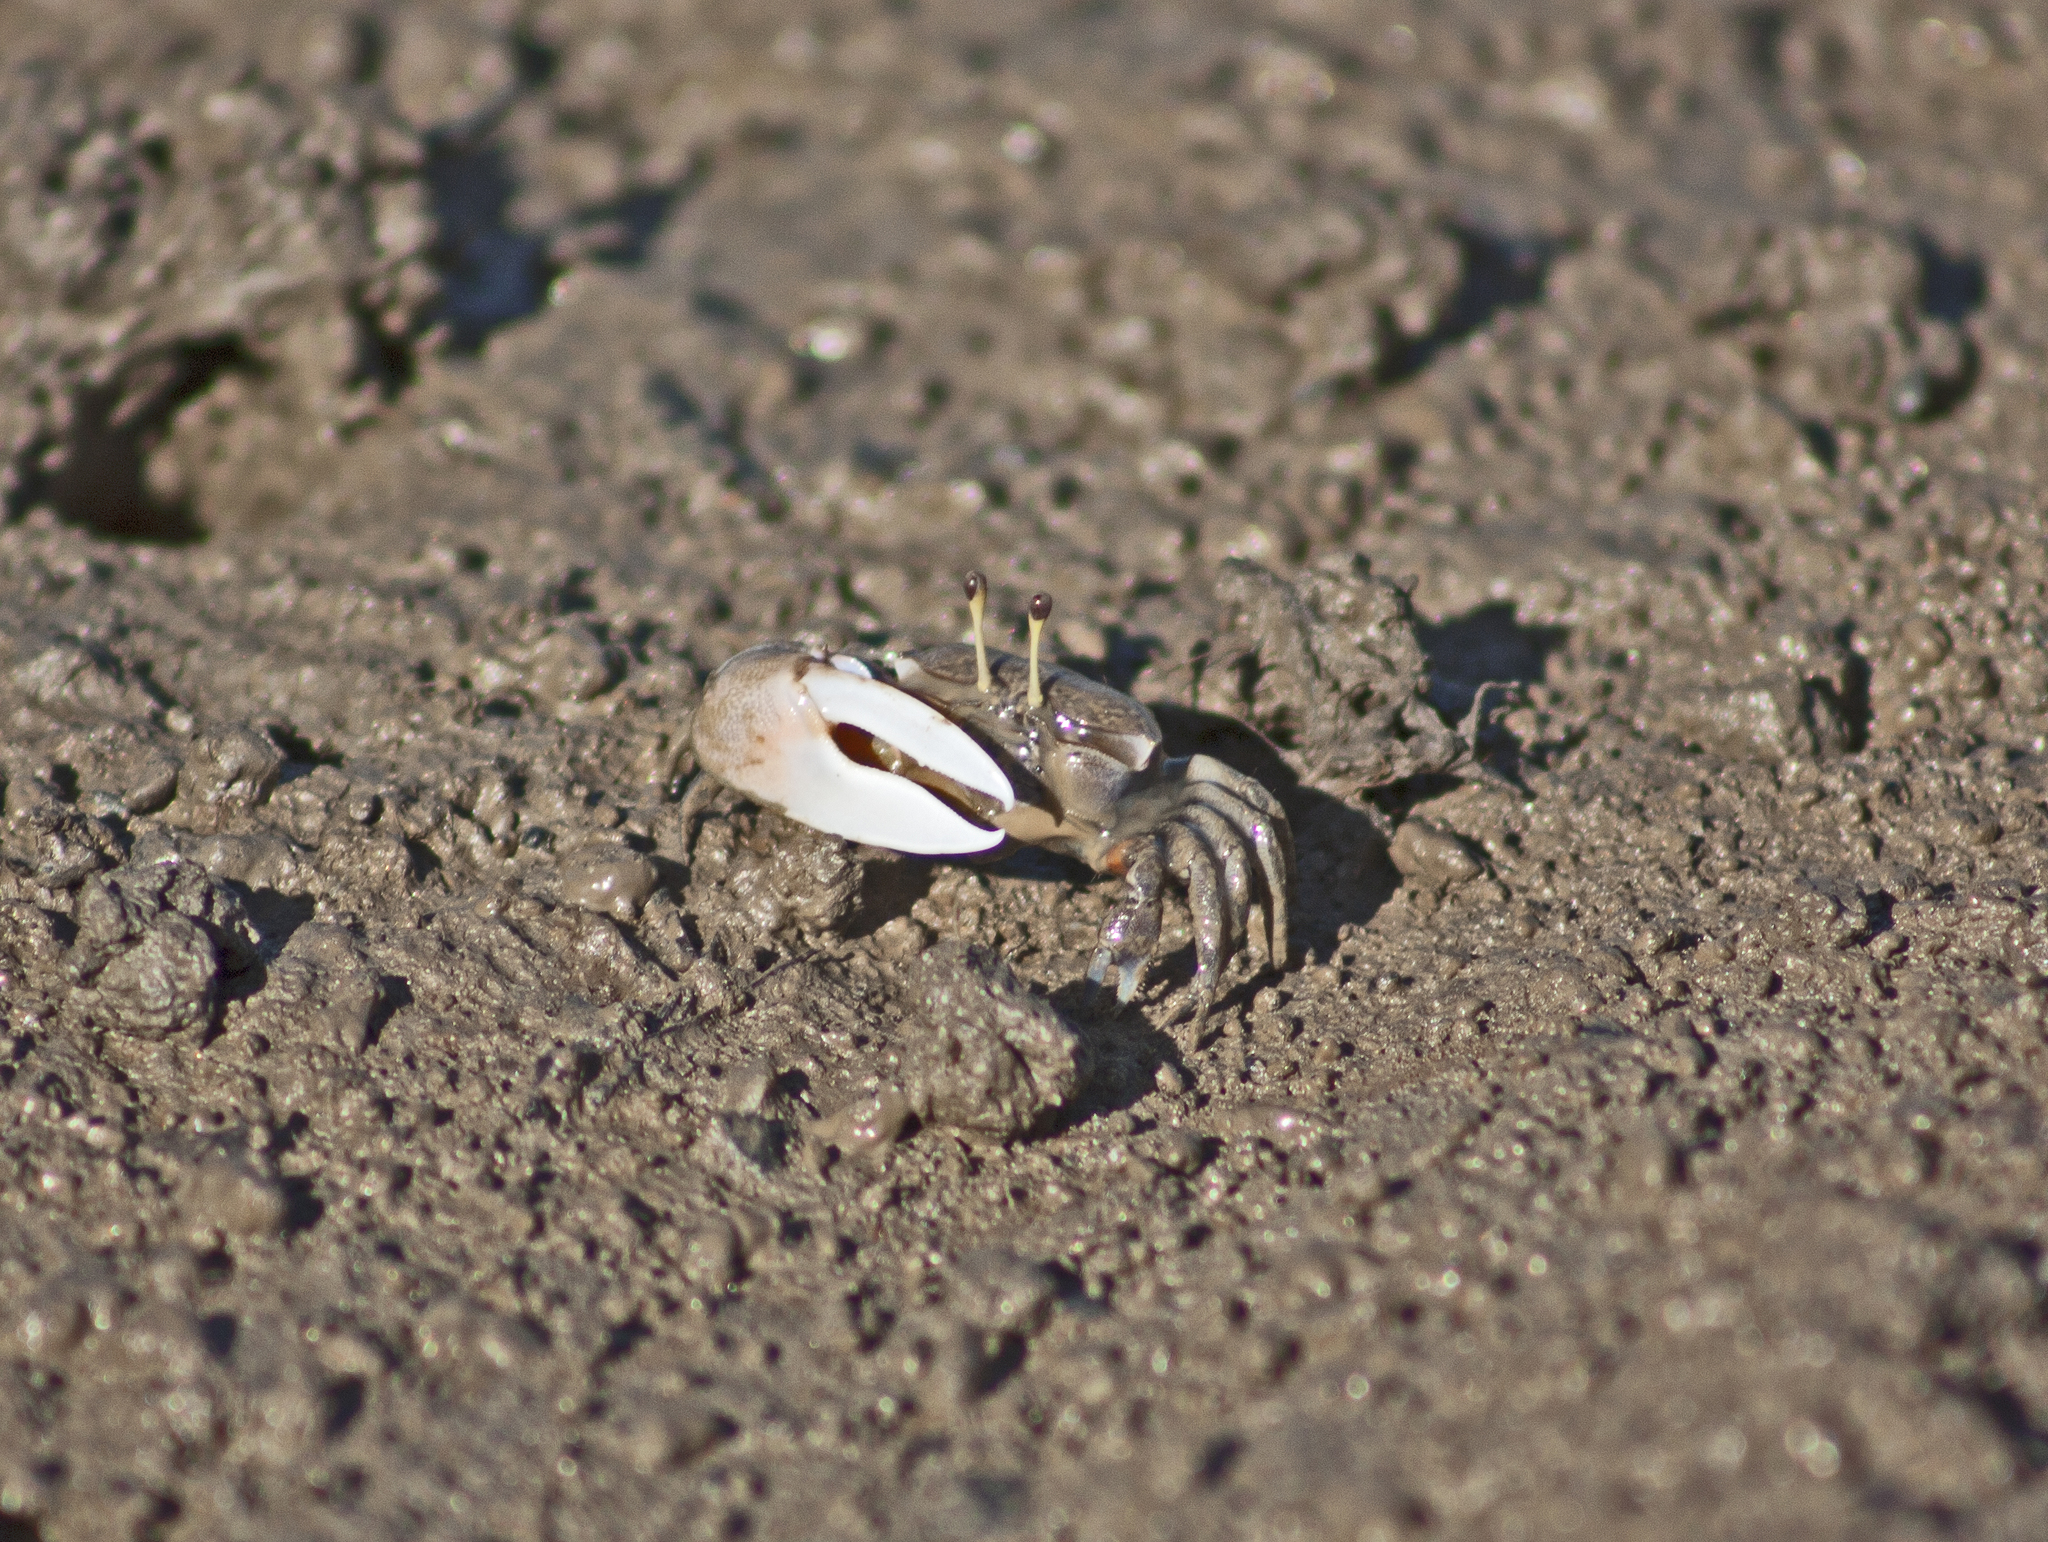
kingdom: Animalia
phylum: Arthropoda
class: Malacostraca
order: Decapoda
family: Ocypodidae
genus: Tubuca
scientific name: Tubuca seismella
